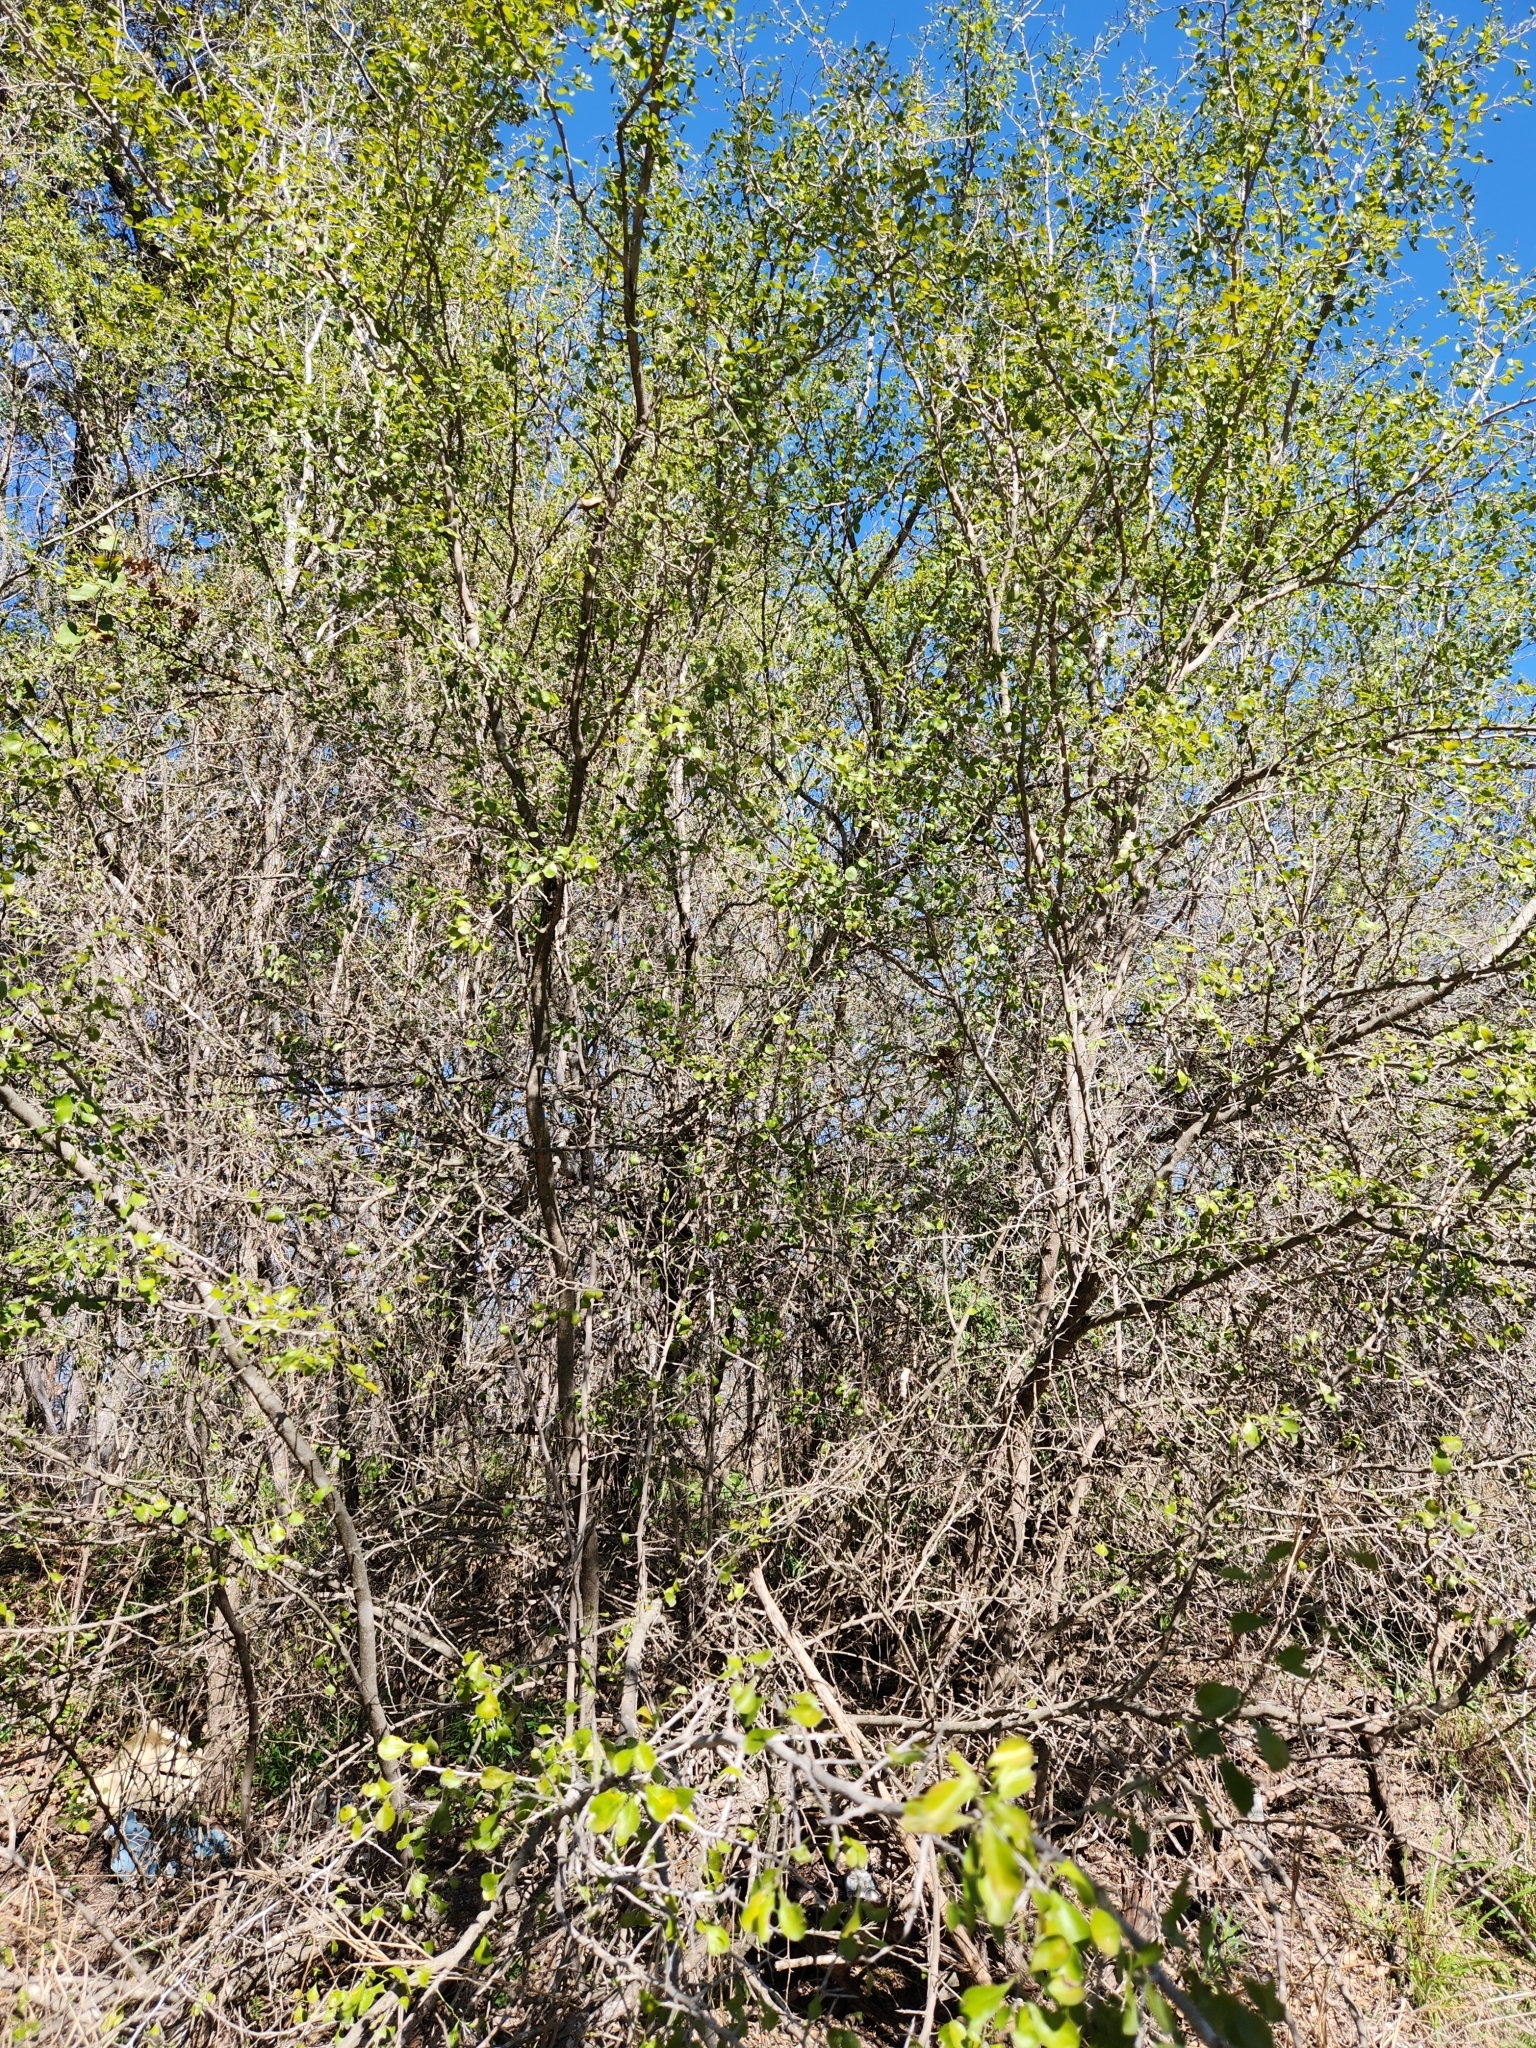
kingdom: Plantae
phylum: Tracheophyta
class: Magnoliopsida
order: Rosales
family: Rhamnaceae
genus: Condalia
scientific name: Condalia hookeri
